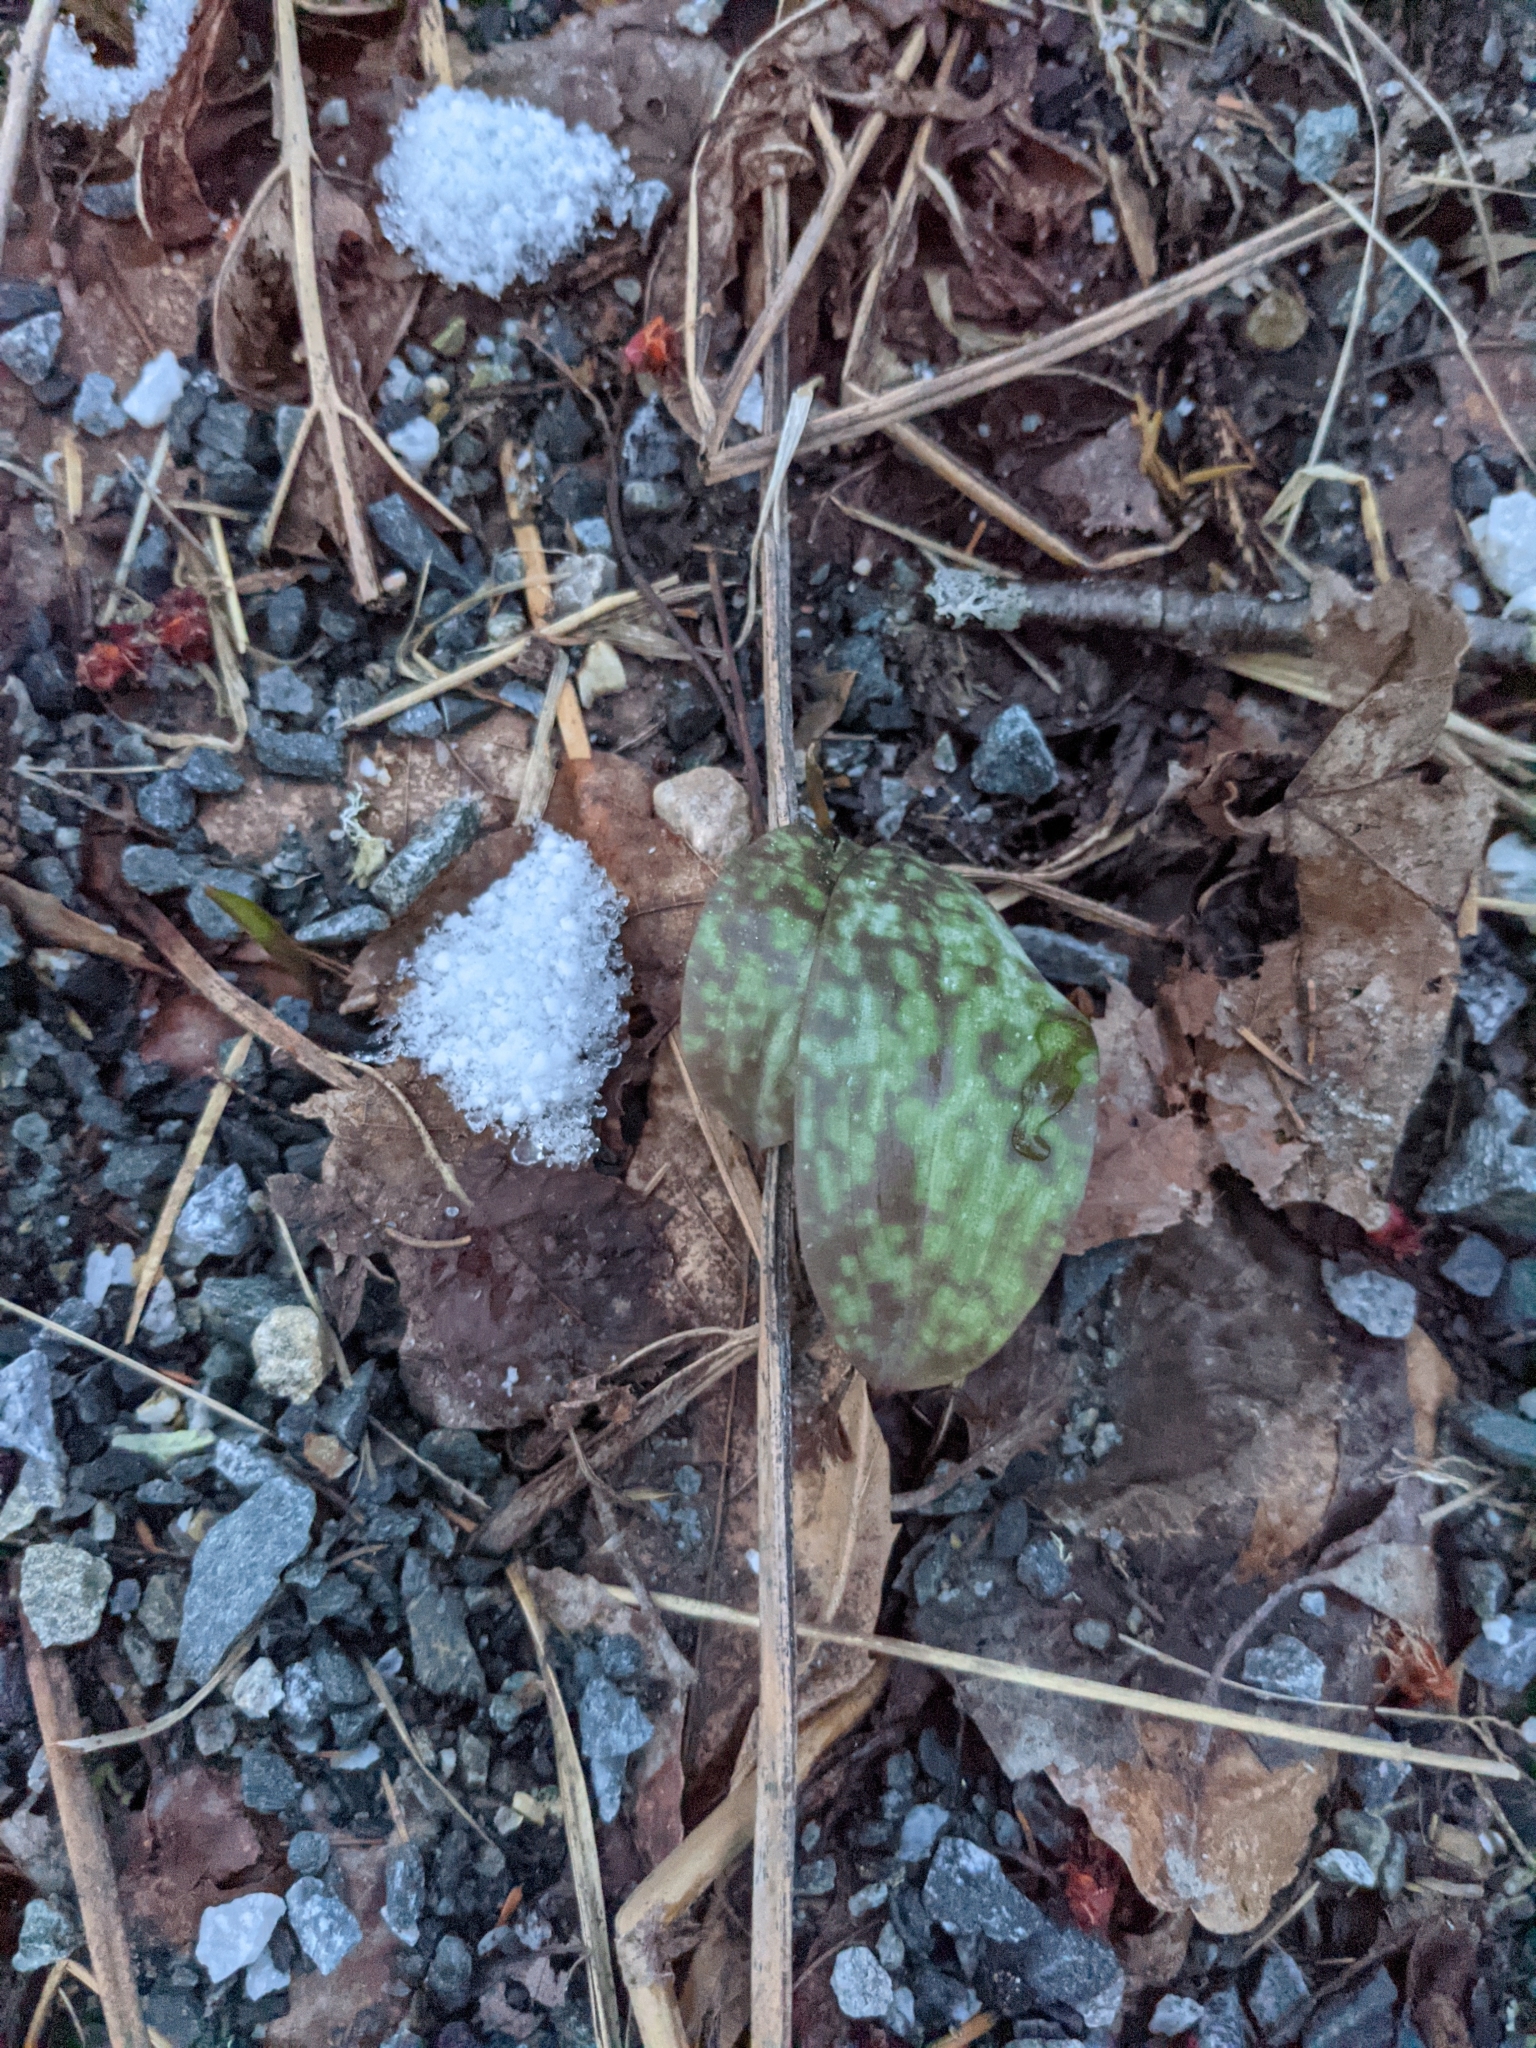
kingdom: Plantae
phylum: Tracheophyta
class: Liliopsida
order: Liliales
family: Liliaceae
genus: Erythronium
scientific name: Erythronium americanum
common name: Yellow adder's-tongue
